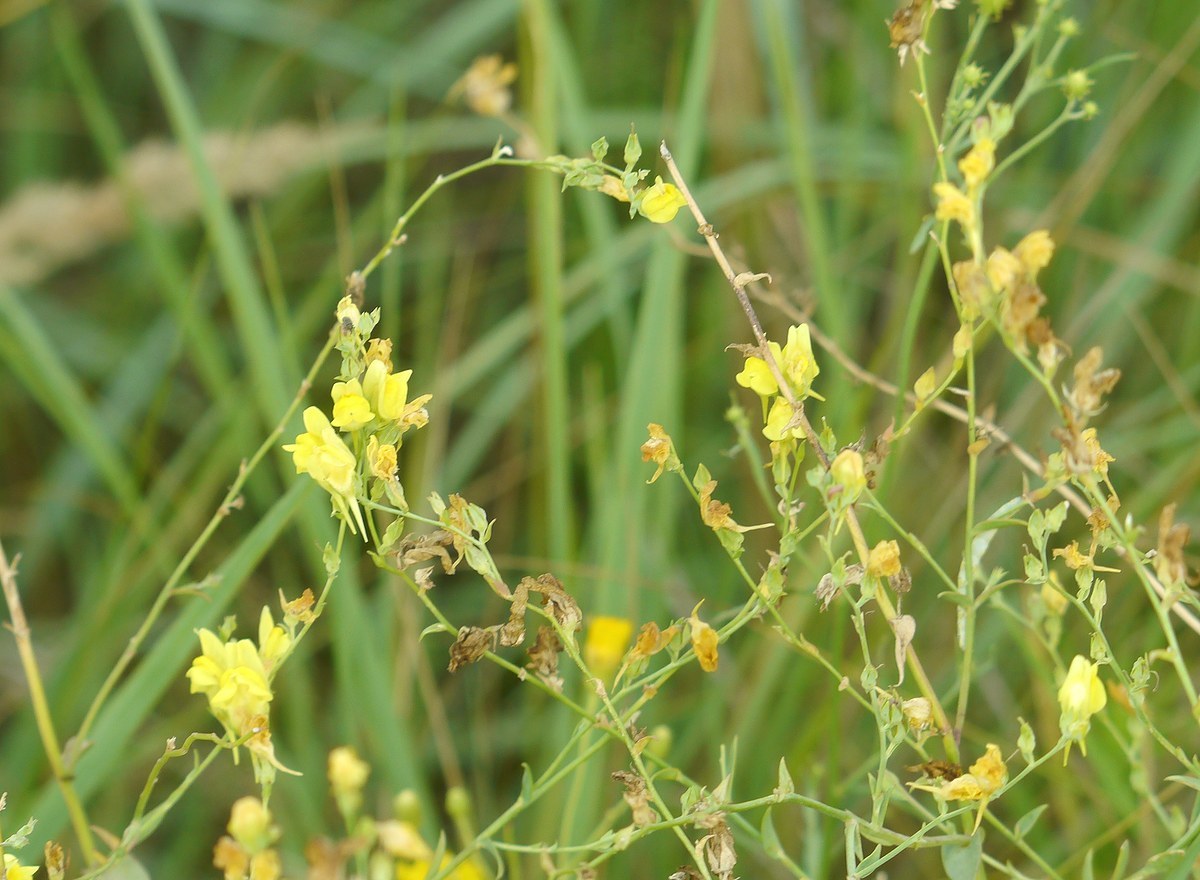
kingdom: Plantae
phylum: Tracheophyta
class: Magnoliopsida
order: Lamiales
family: Plantaginaceae
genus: Linaria
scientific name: Linaria genistifolia
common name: Broomleaf toadflax
